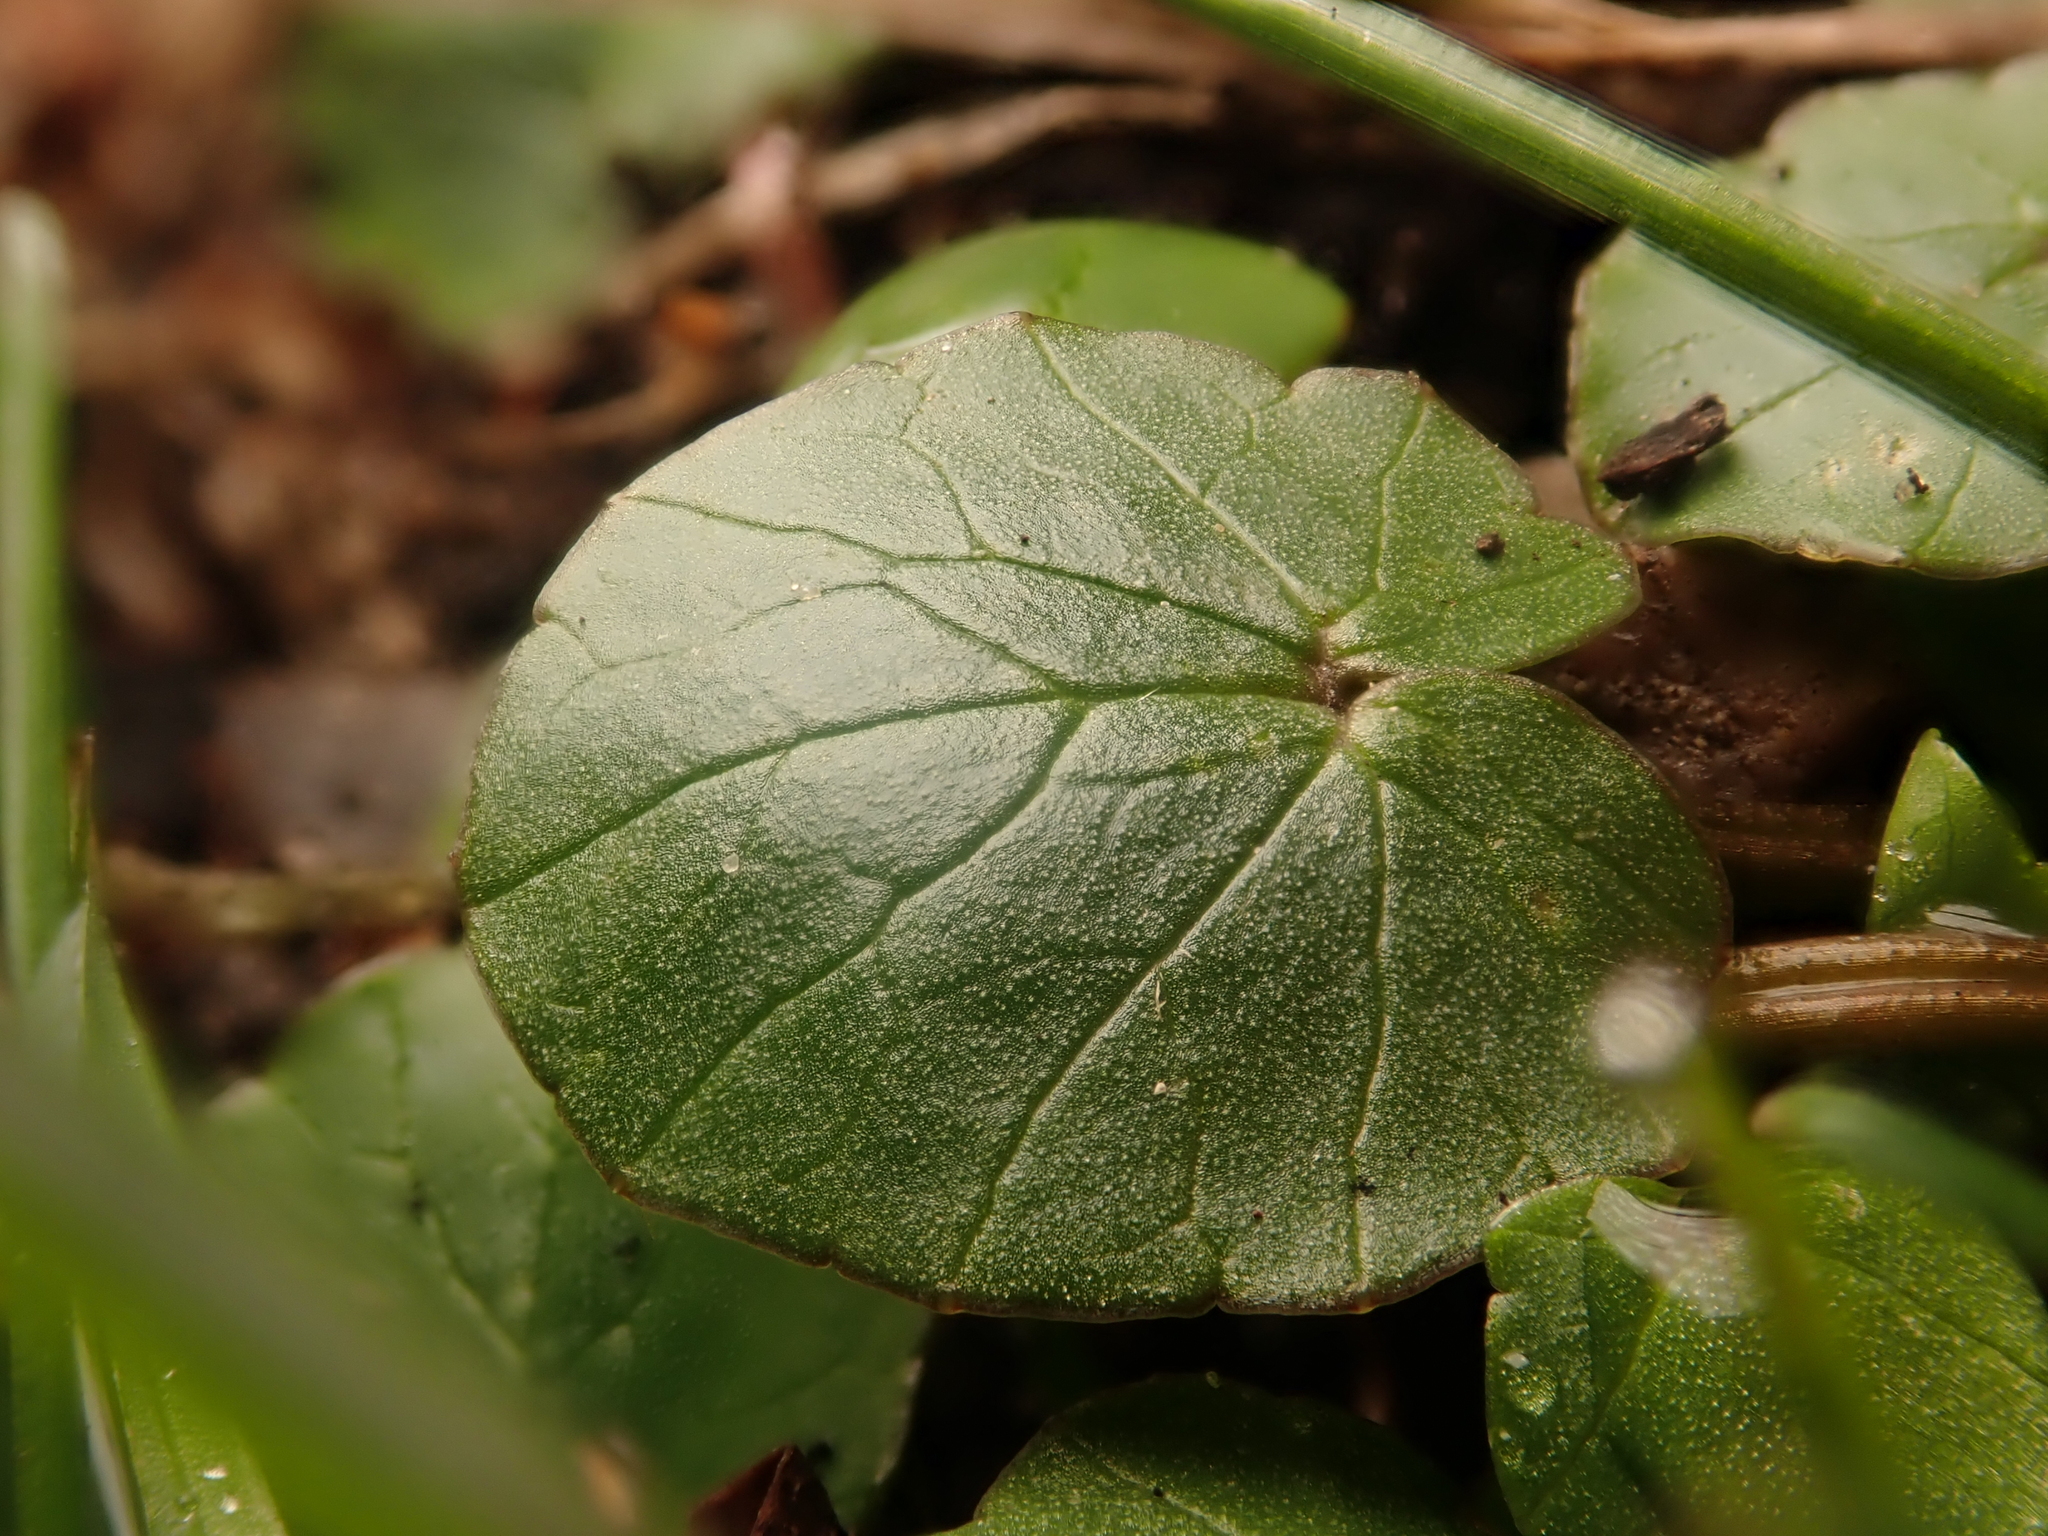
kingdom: Plantae
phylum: Tracheophyta
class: Magnoliopsida
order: Ranunculales
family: Ranunculaceae
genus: Ficaria
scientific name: Ficaria verna
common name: Lesser celandine
